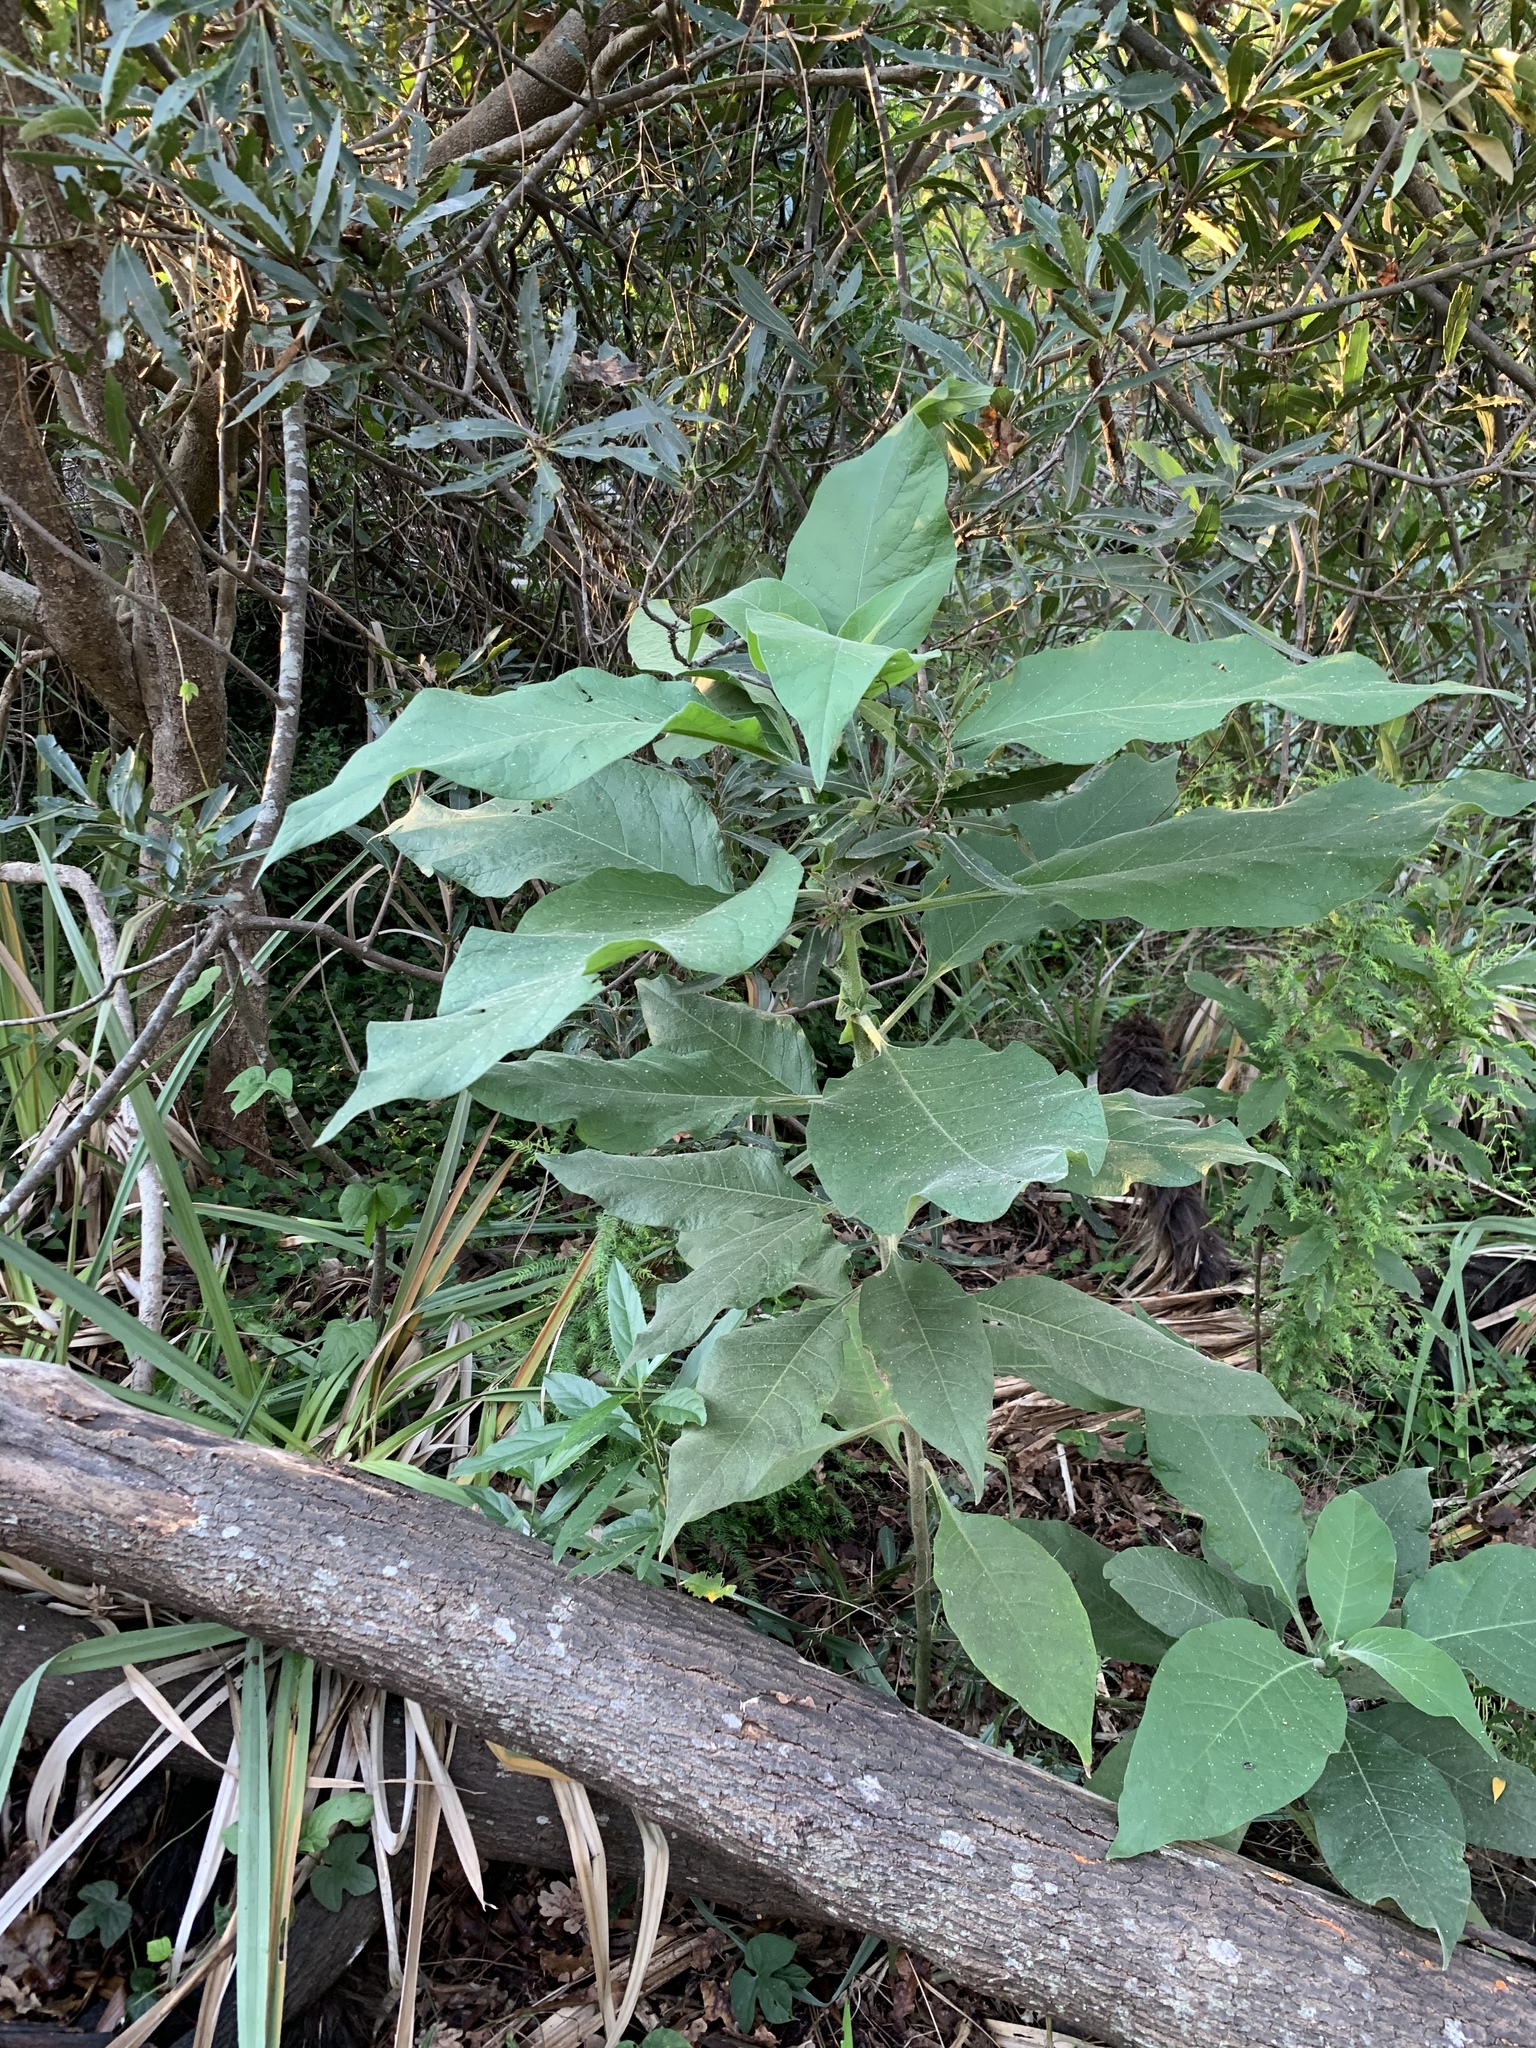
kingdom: Plantae
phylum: Tracheophyta
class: Magnoliopsida
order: Solanales
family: Solanaceae
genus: Solanum
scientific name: Solanum mauritianum
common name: Earleaf nightshade
